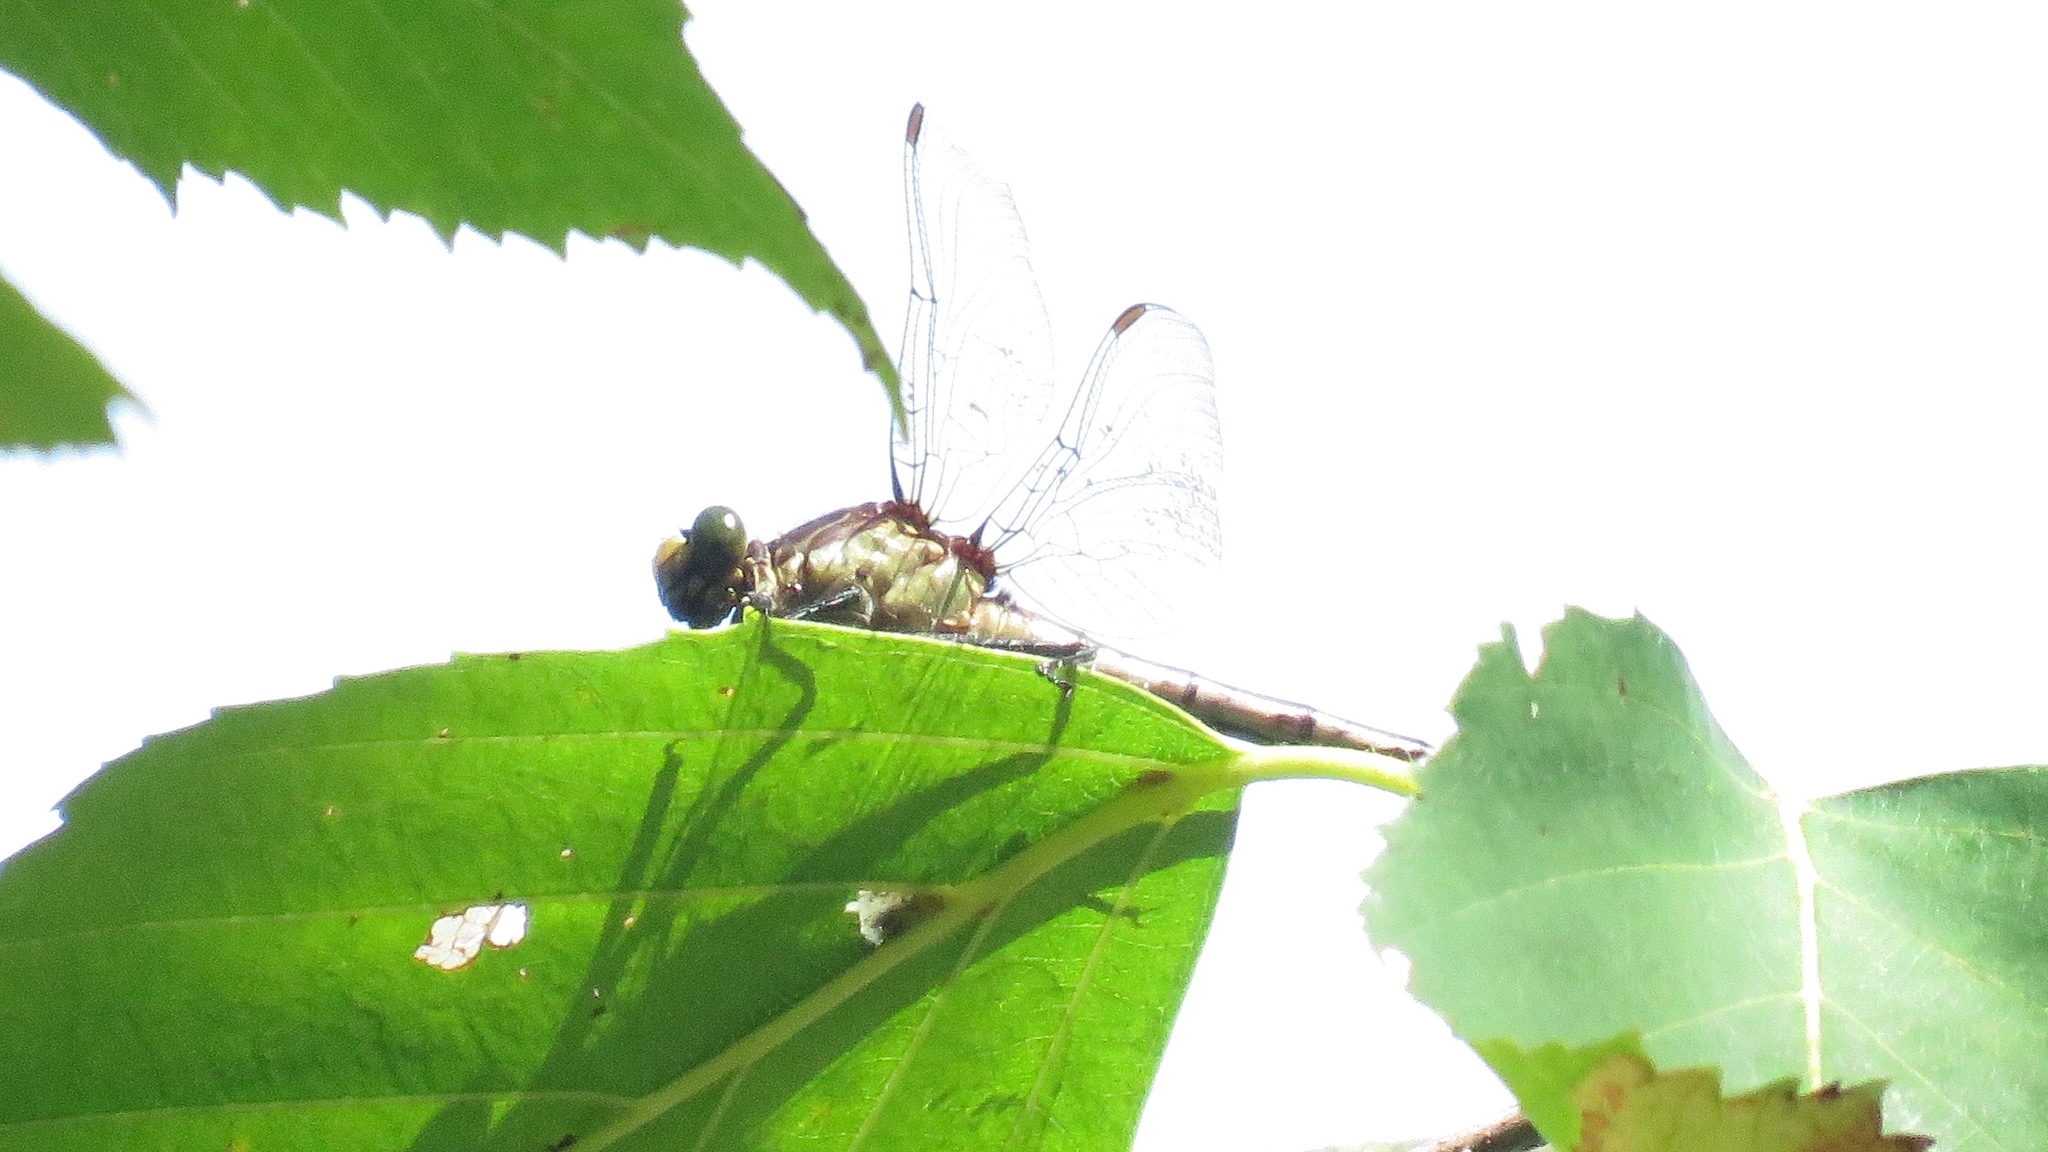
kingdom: Animalia
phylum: Arthropoda
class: Insecta
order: Odonata
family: Gomphidae
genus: Dromogomphus
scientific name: Dromogomphus spinosus
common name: Black-shouldered spinyleg
